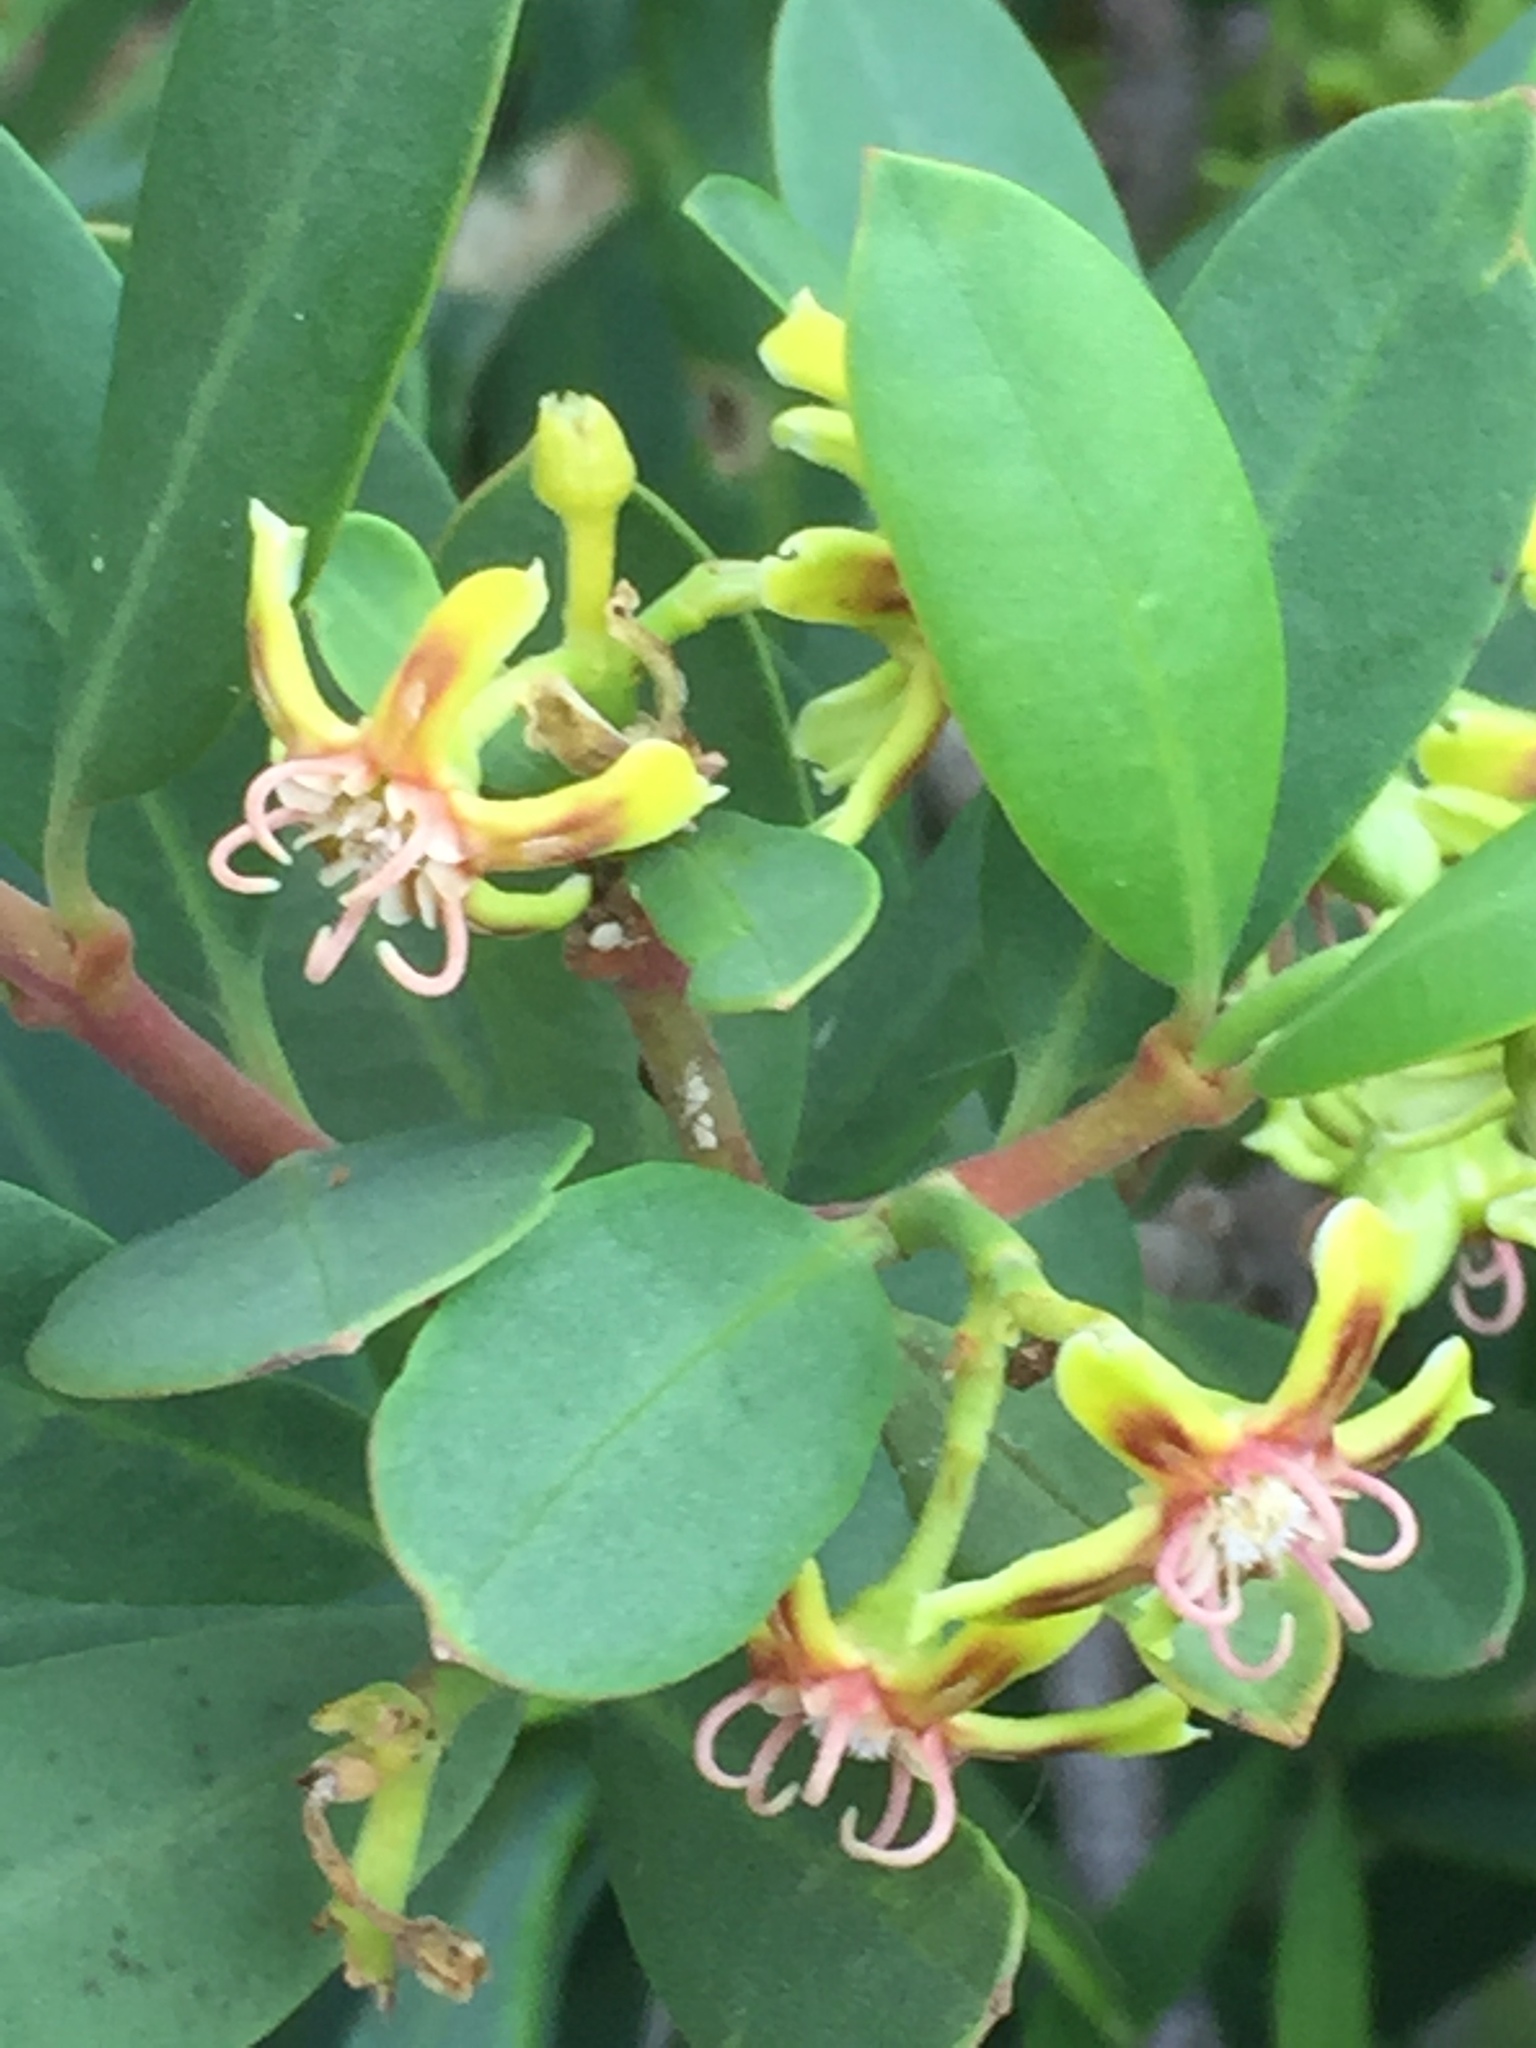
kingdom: Plantae
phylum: Tracheophyta
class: Magnoliopsida
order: Gentianales
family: Apocynaceae
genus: Periploca
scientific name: Periploca laevigata
